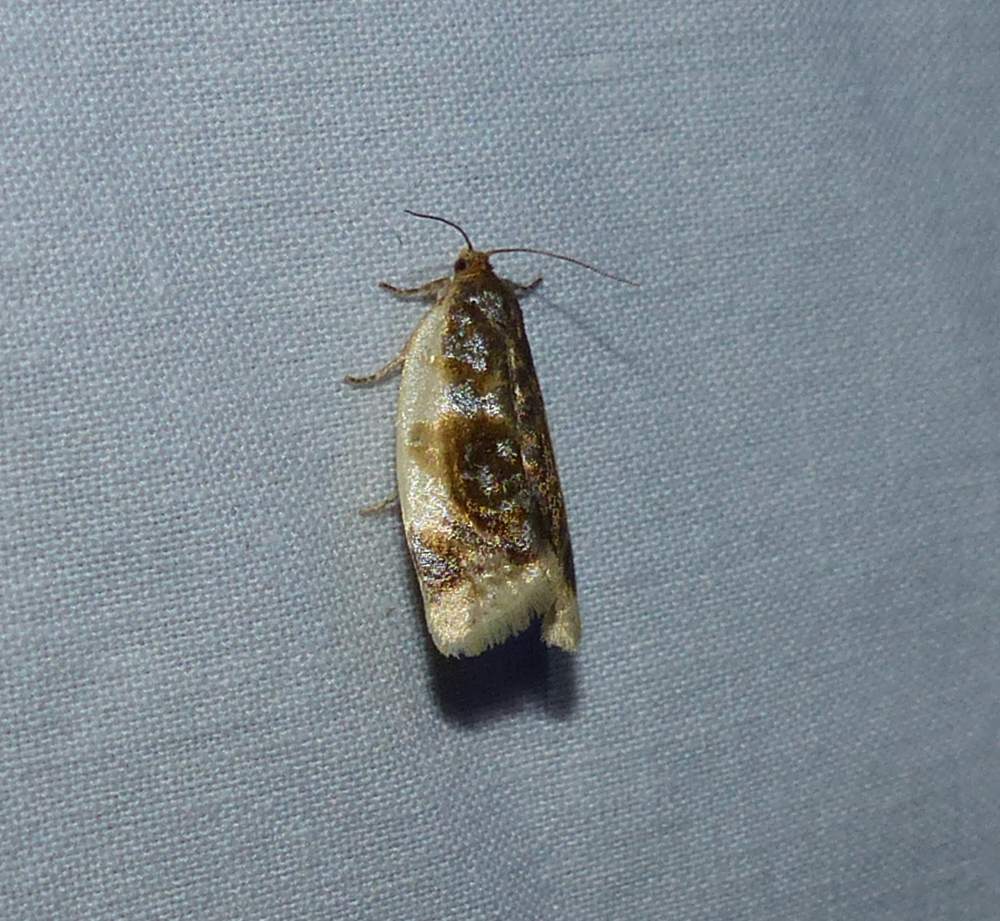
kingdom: Animalia
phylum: Arthropoda
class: Insecta
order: Lepidoptera
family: Tortricidae
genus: Clepsis
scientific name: Clepsis melaleucanus
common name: American apple tortrix
